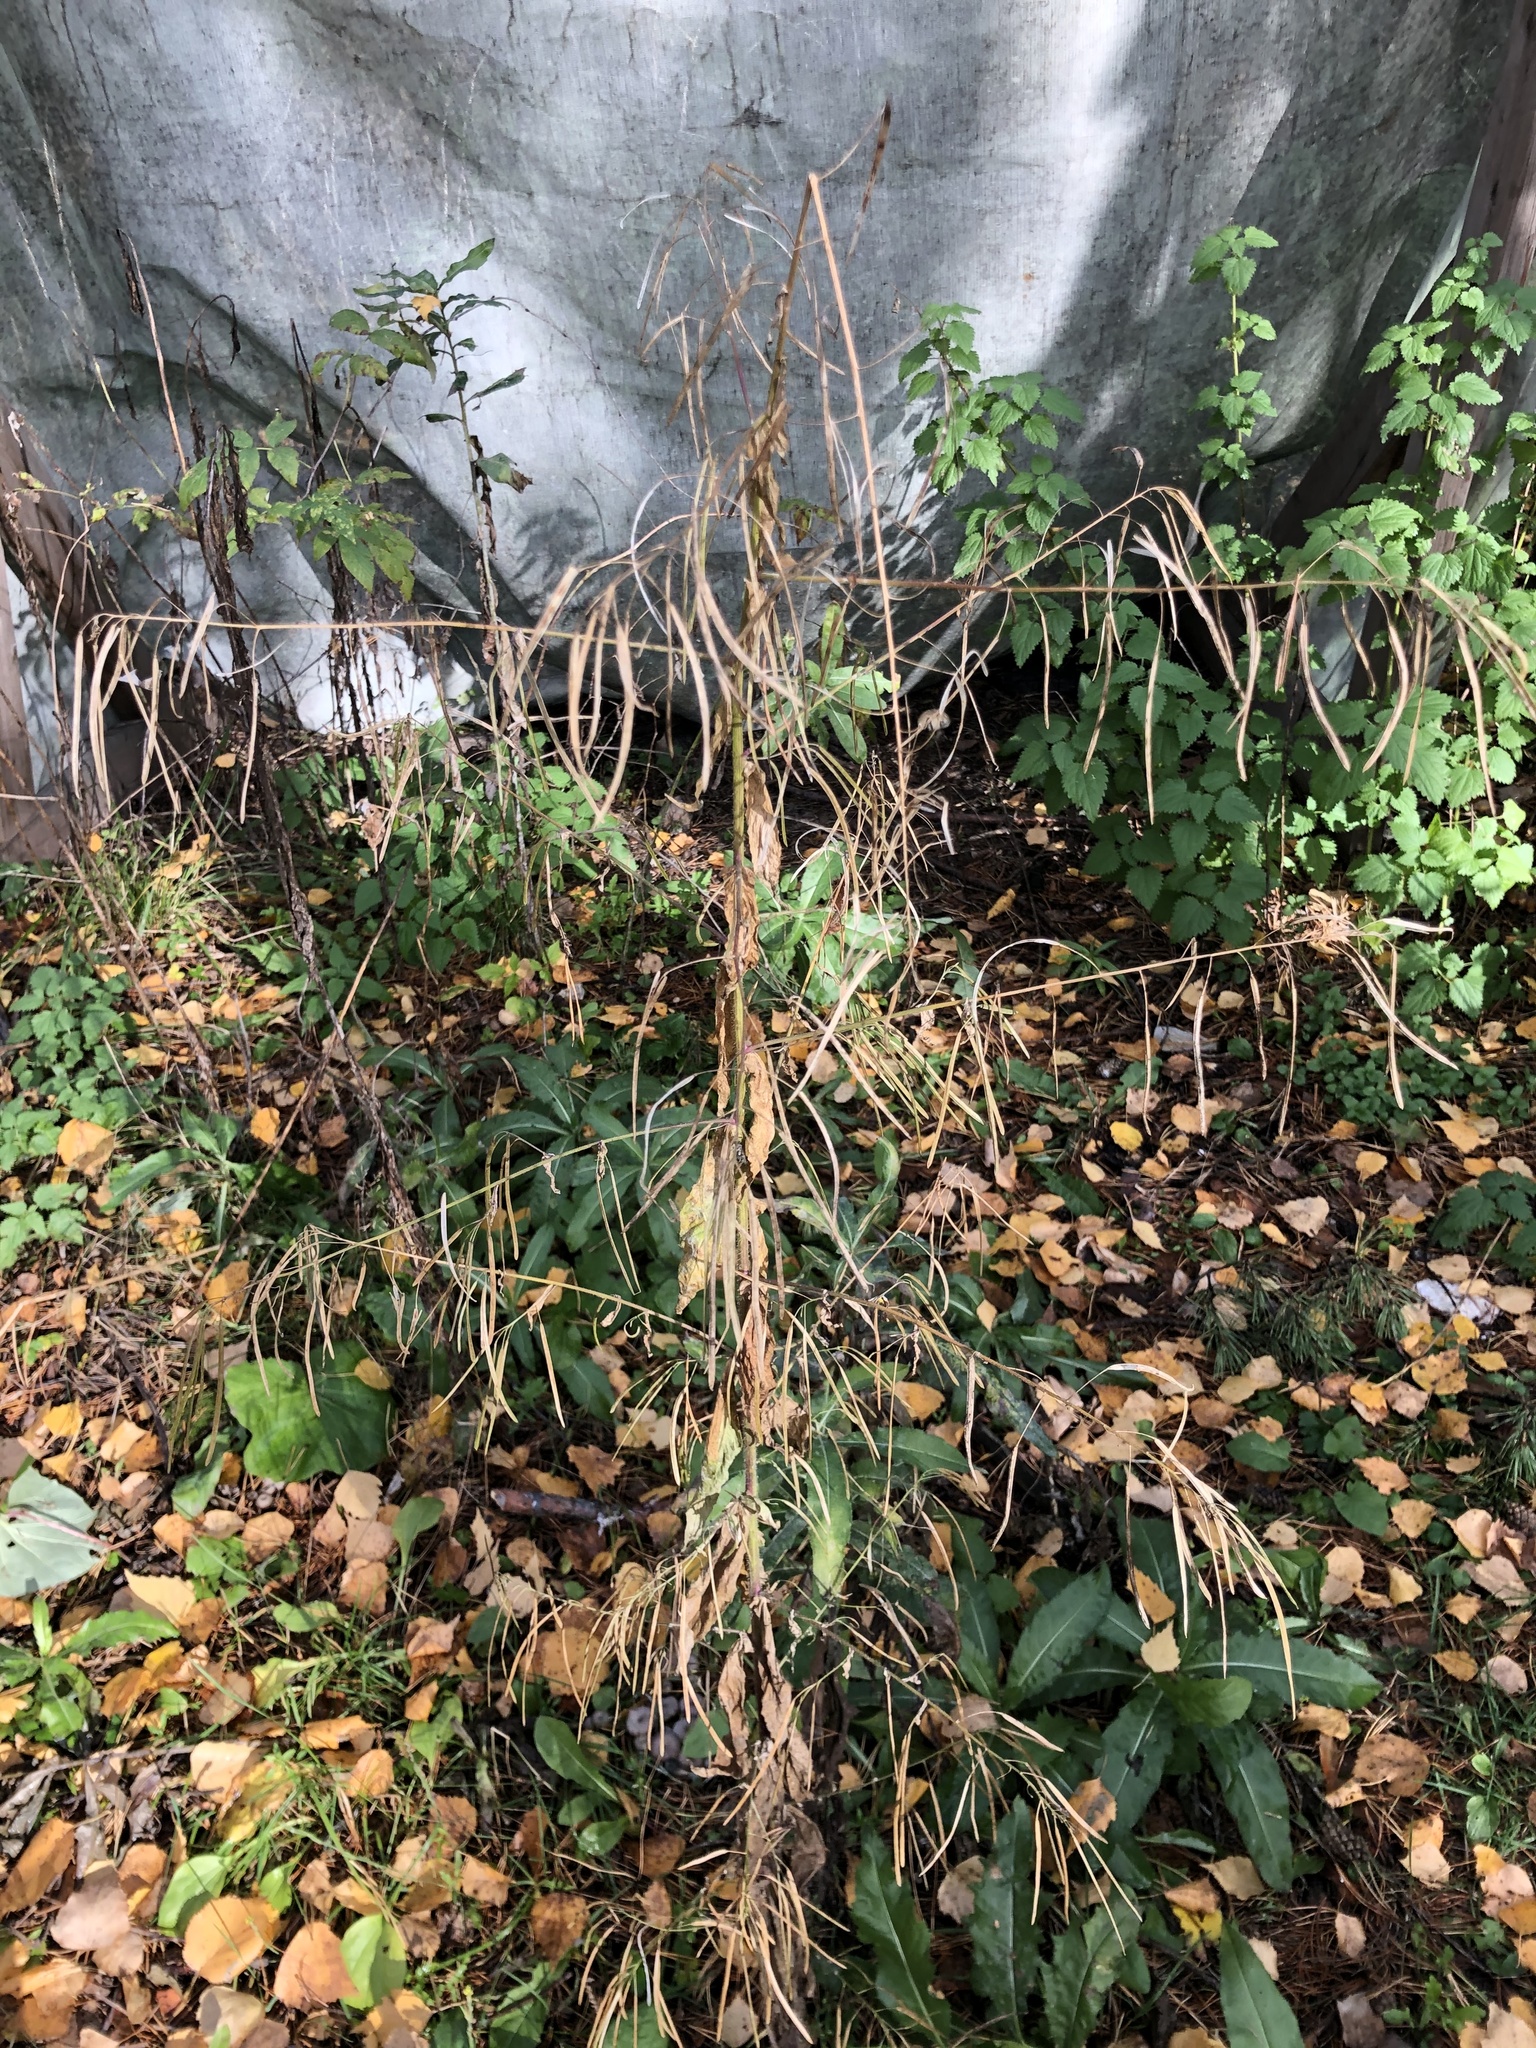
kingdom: Plantae
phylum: Tracheophyta
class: Magnoliopsida
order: Brassicales
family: Brassicaceae
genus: Catolobus
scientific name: Catolobus pendulus
